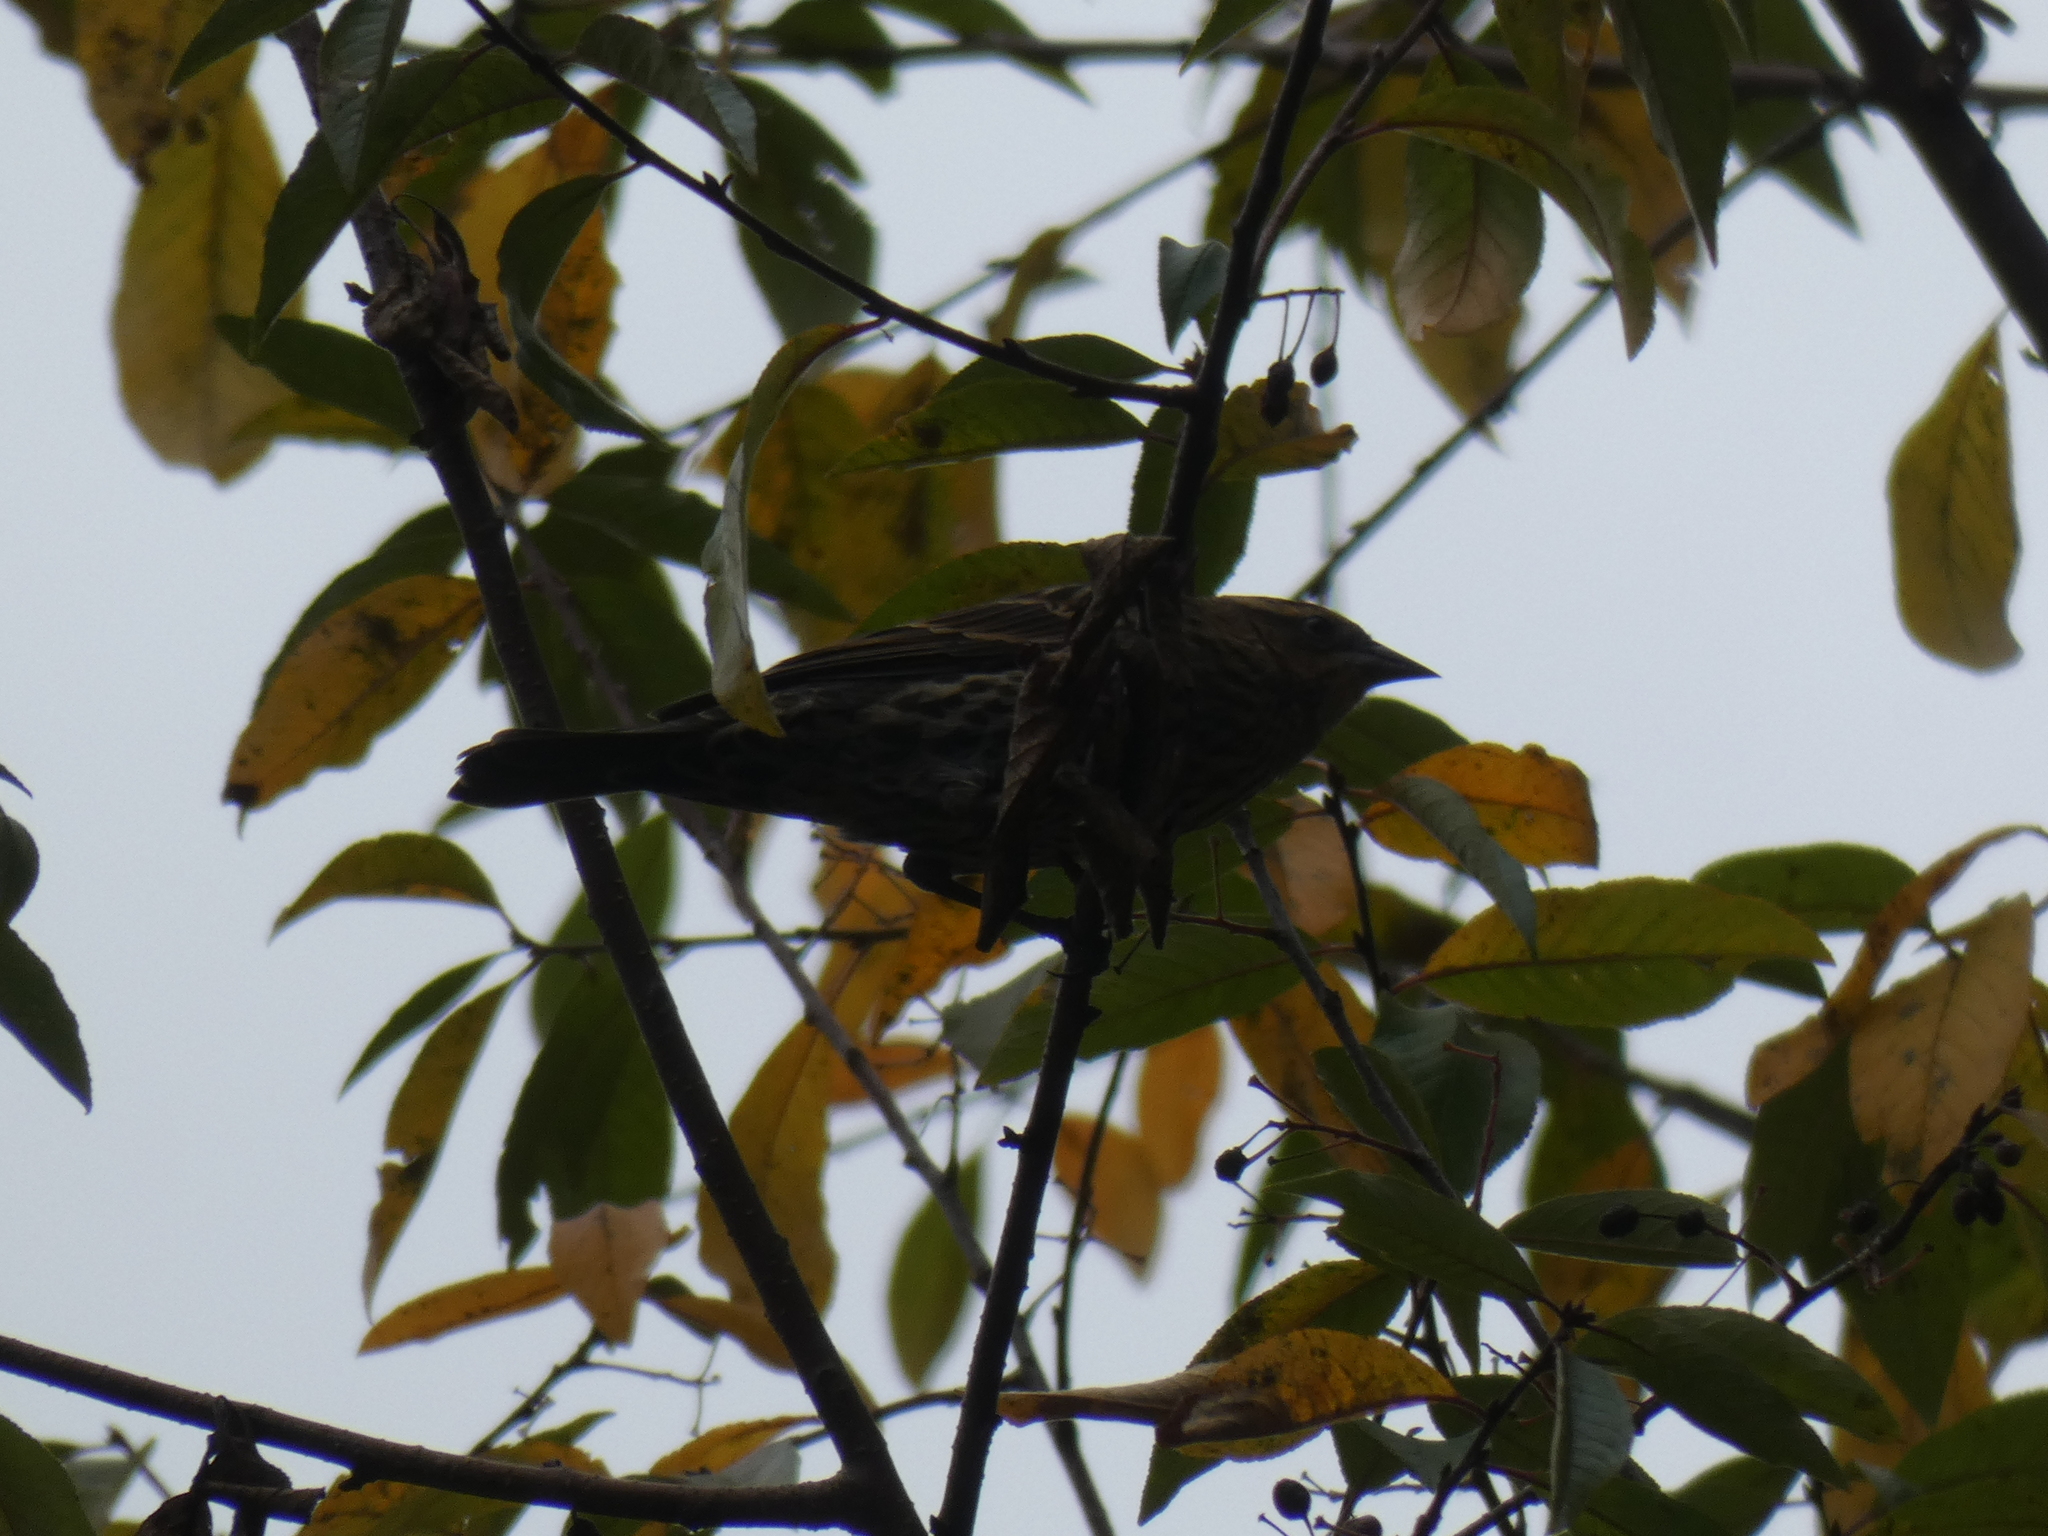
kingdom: Animalia
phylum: Chordata
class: Aves
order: Passeriformes
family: Icteridae
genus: Agelaius
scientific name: Agelaius phoeniceus
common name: Red-winged blackbird
